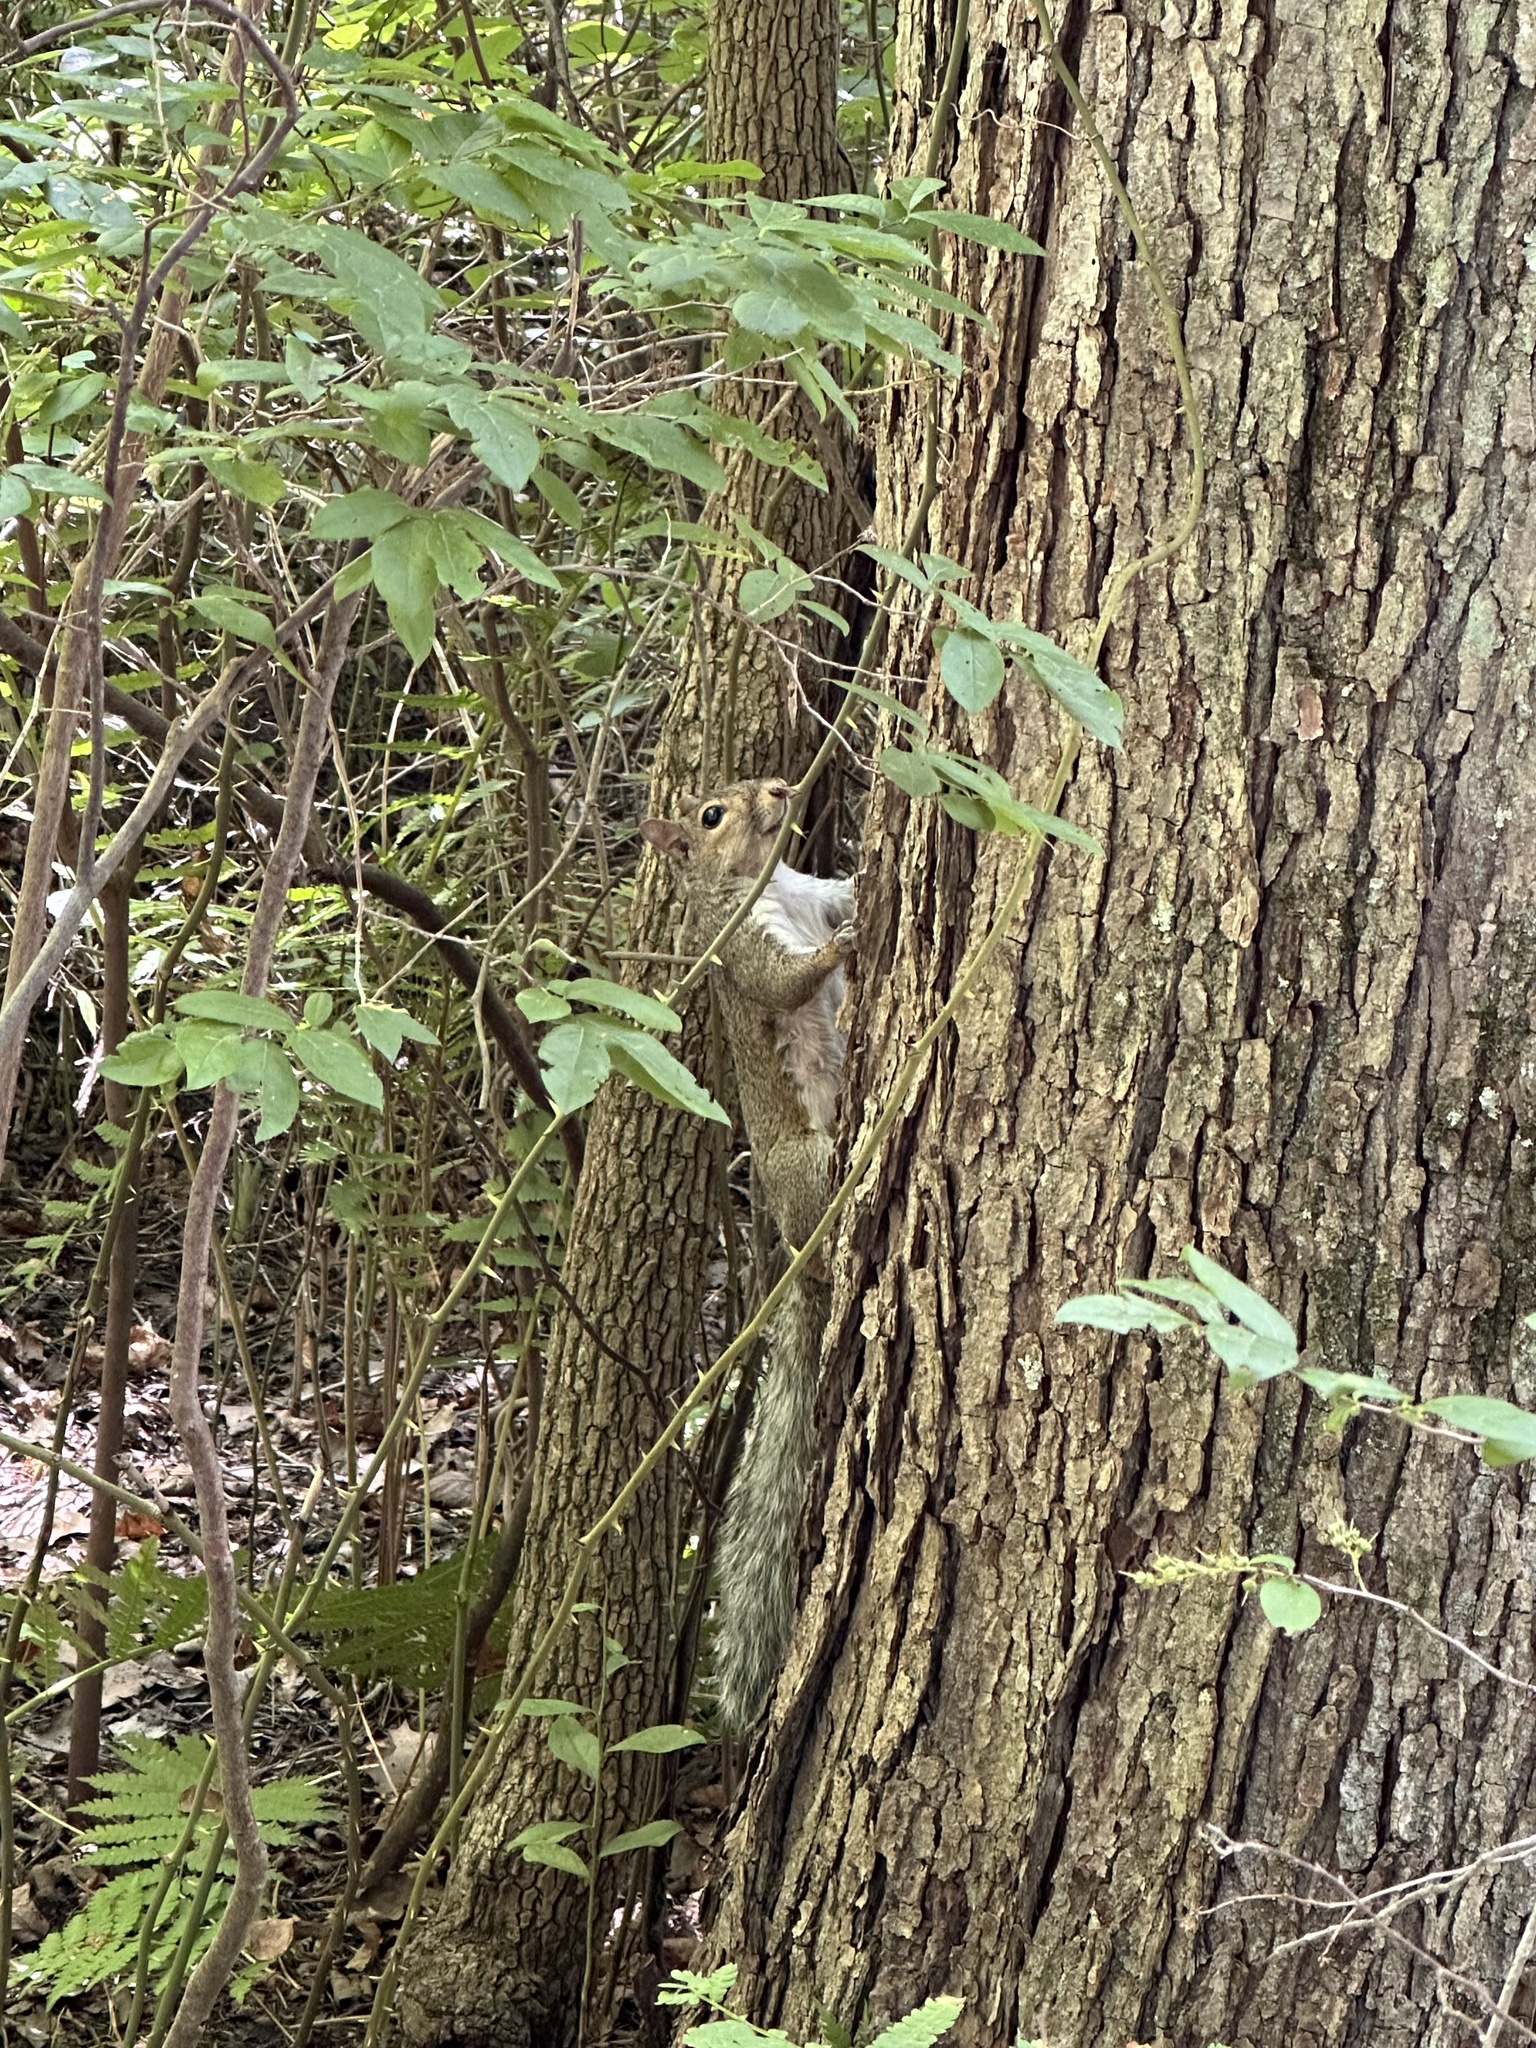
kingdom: Animalia
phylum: Chordata
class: Mammalia
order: Rodentia
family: Sciuridae
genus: Sciurus
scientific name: Sciurus carolinensis
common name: Eastern gray squirrel
